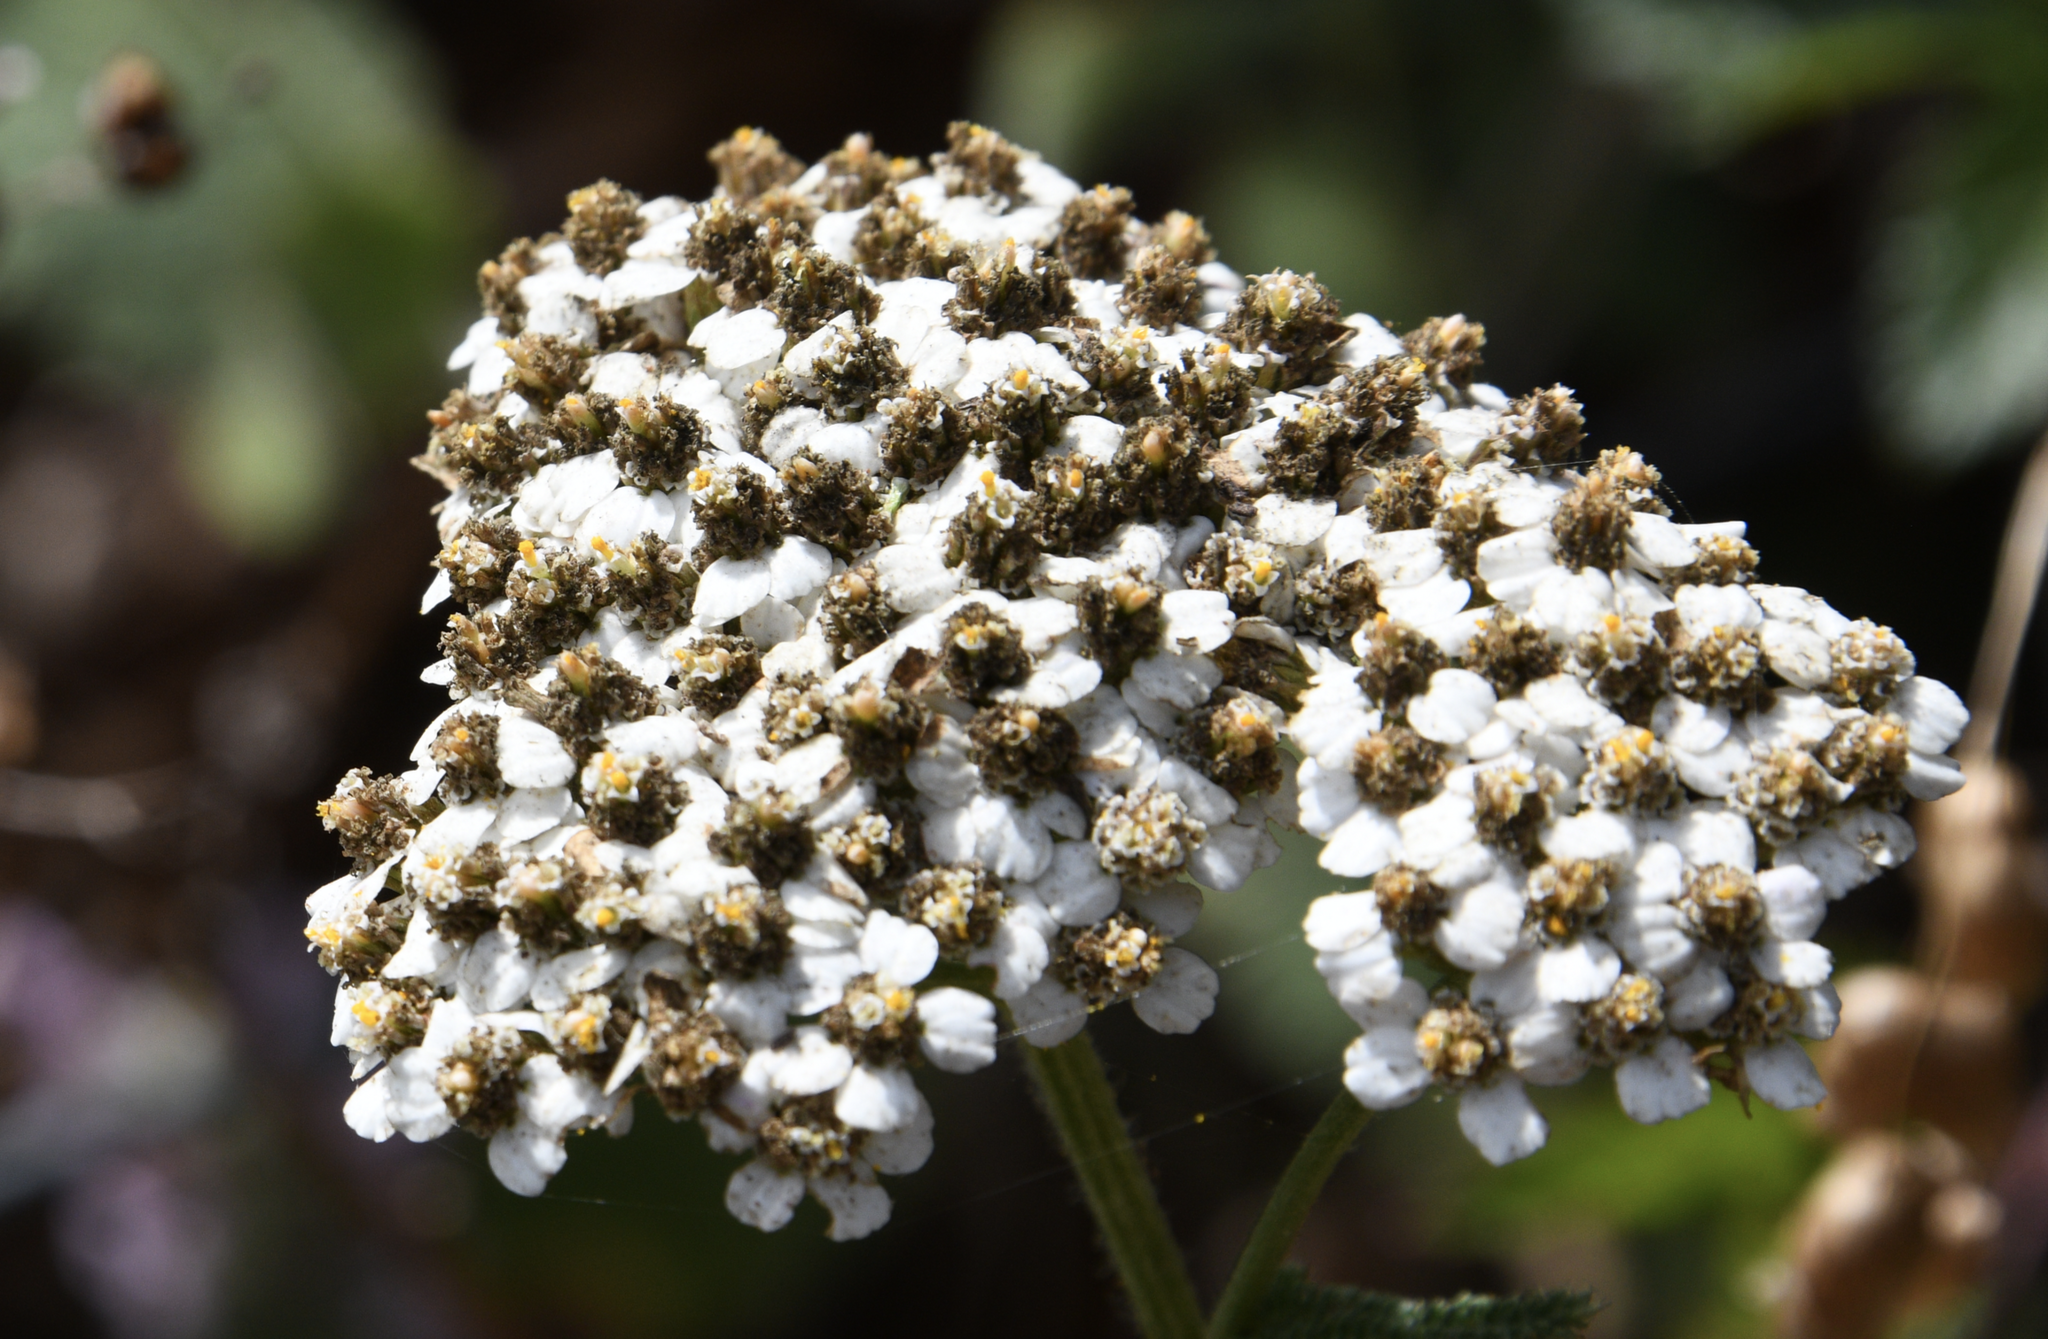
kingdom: Plantae
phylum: Tracheophyta
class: Magnoliopsida
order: Asterales
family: Asteraceae
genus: Achillea
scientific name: Achillea millefolium
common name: Yarrow
